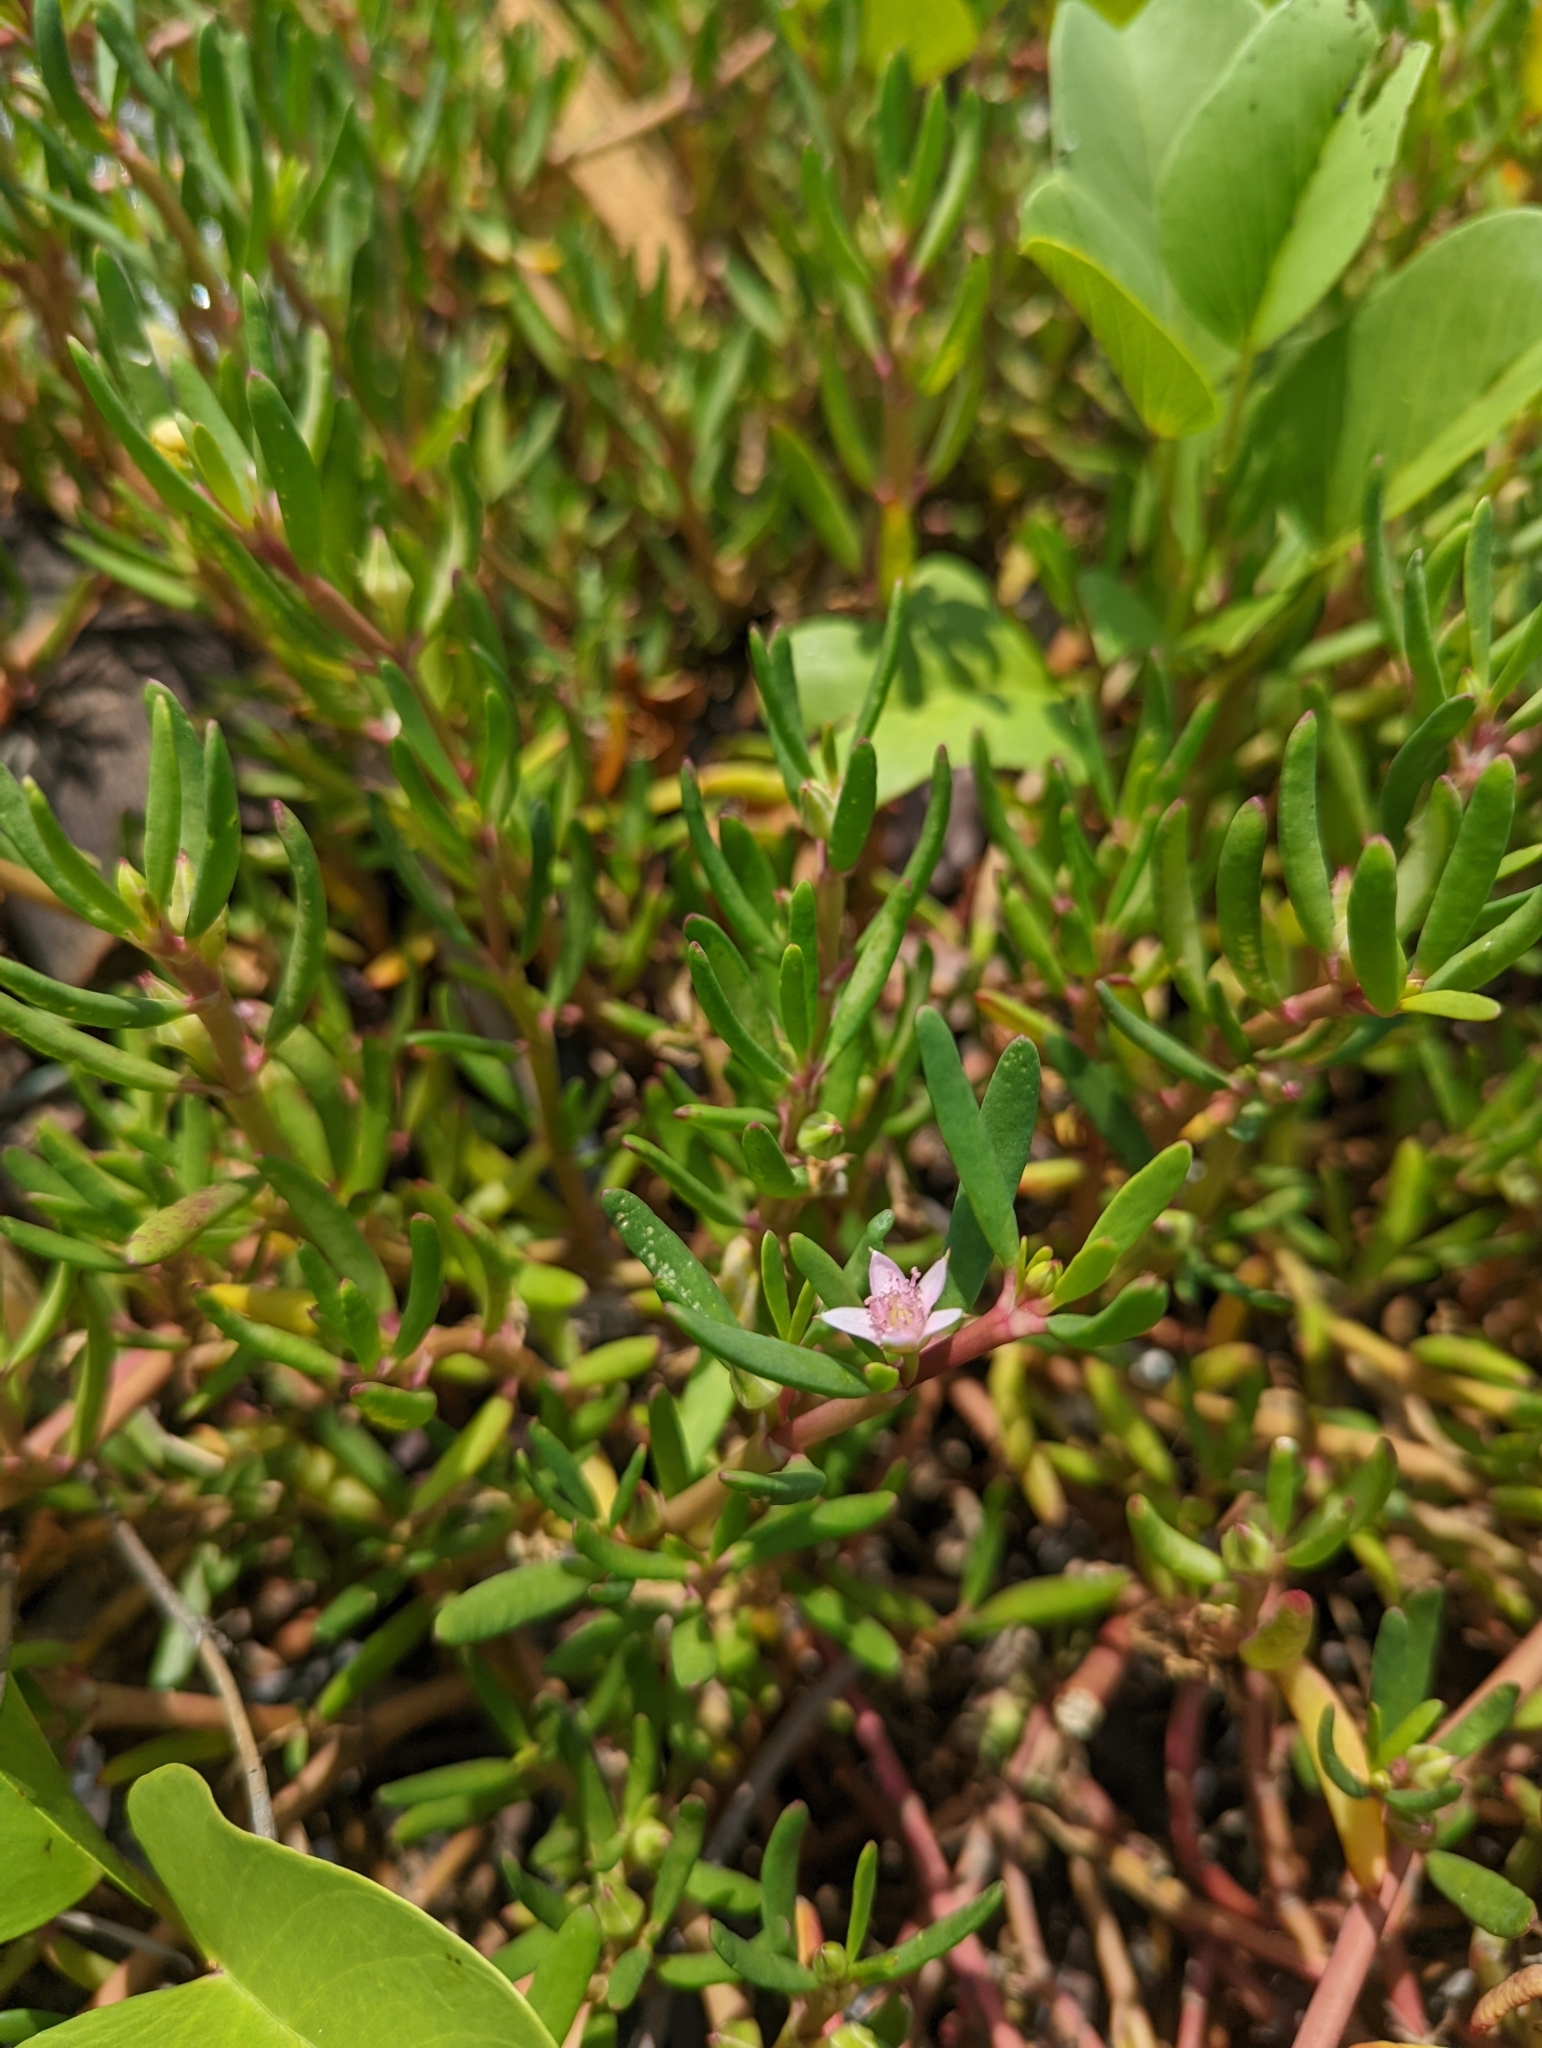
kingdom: Plantae
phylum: Tracheophyta
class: Magnoliopsida
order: Caryophyllales
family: Aizoaceae
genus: Sesuvium
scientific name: Sesuvium portulacastrum
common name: Sea-purslane
